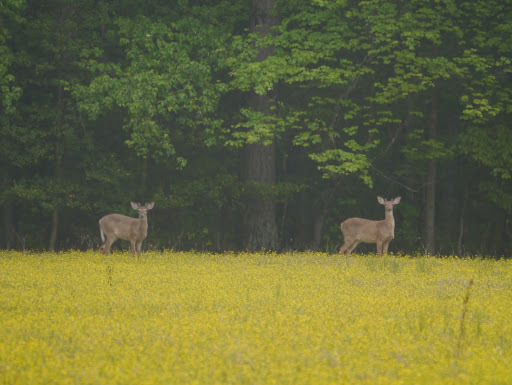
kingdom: Animalia
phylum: Chordata
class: Mammalia
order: Artiodactyla
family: Cervidae
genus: Odocoileus
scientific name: Odocoileus virginianus
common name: White-tailed deer
